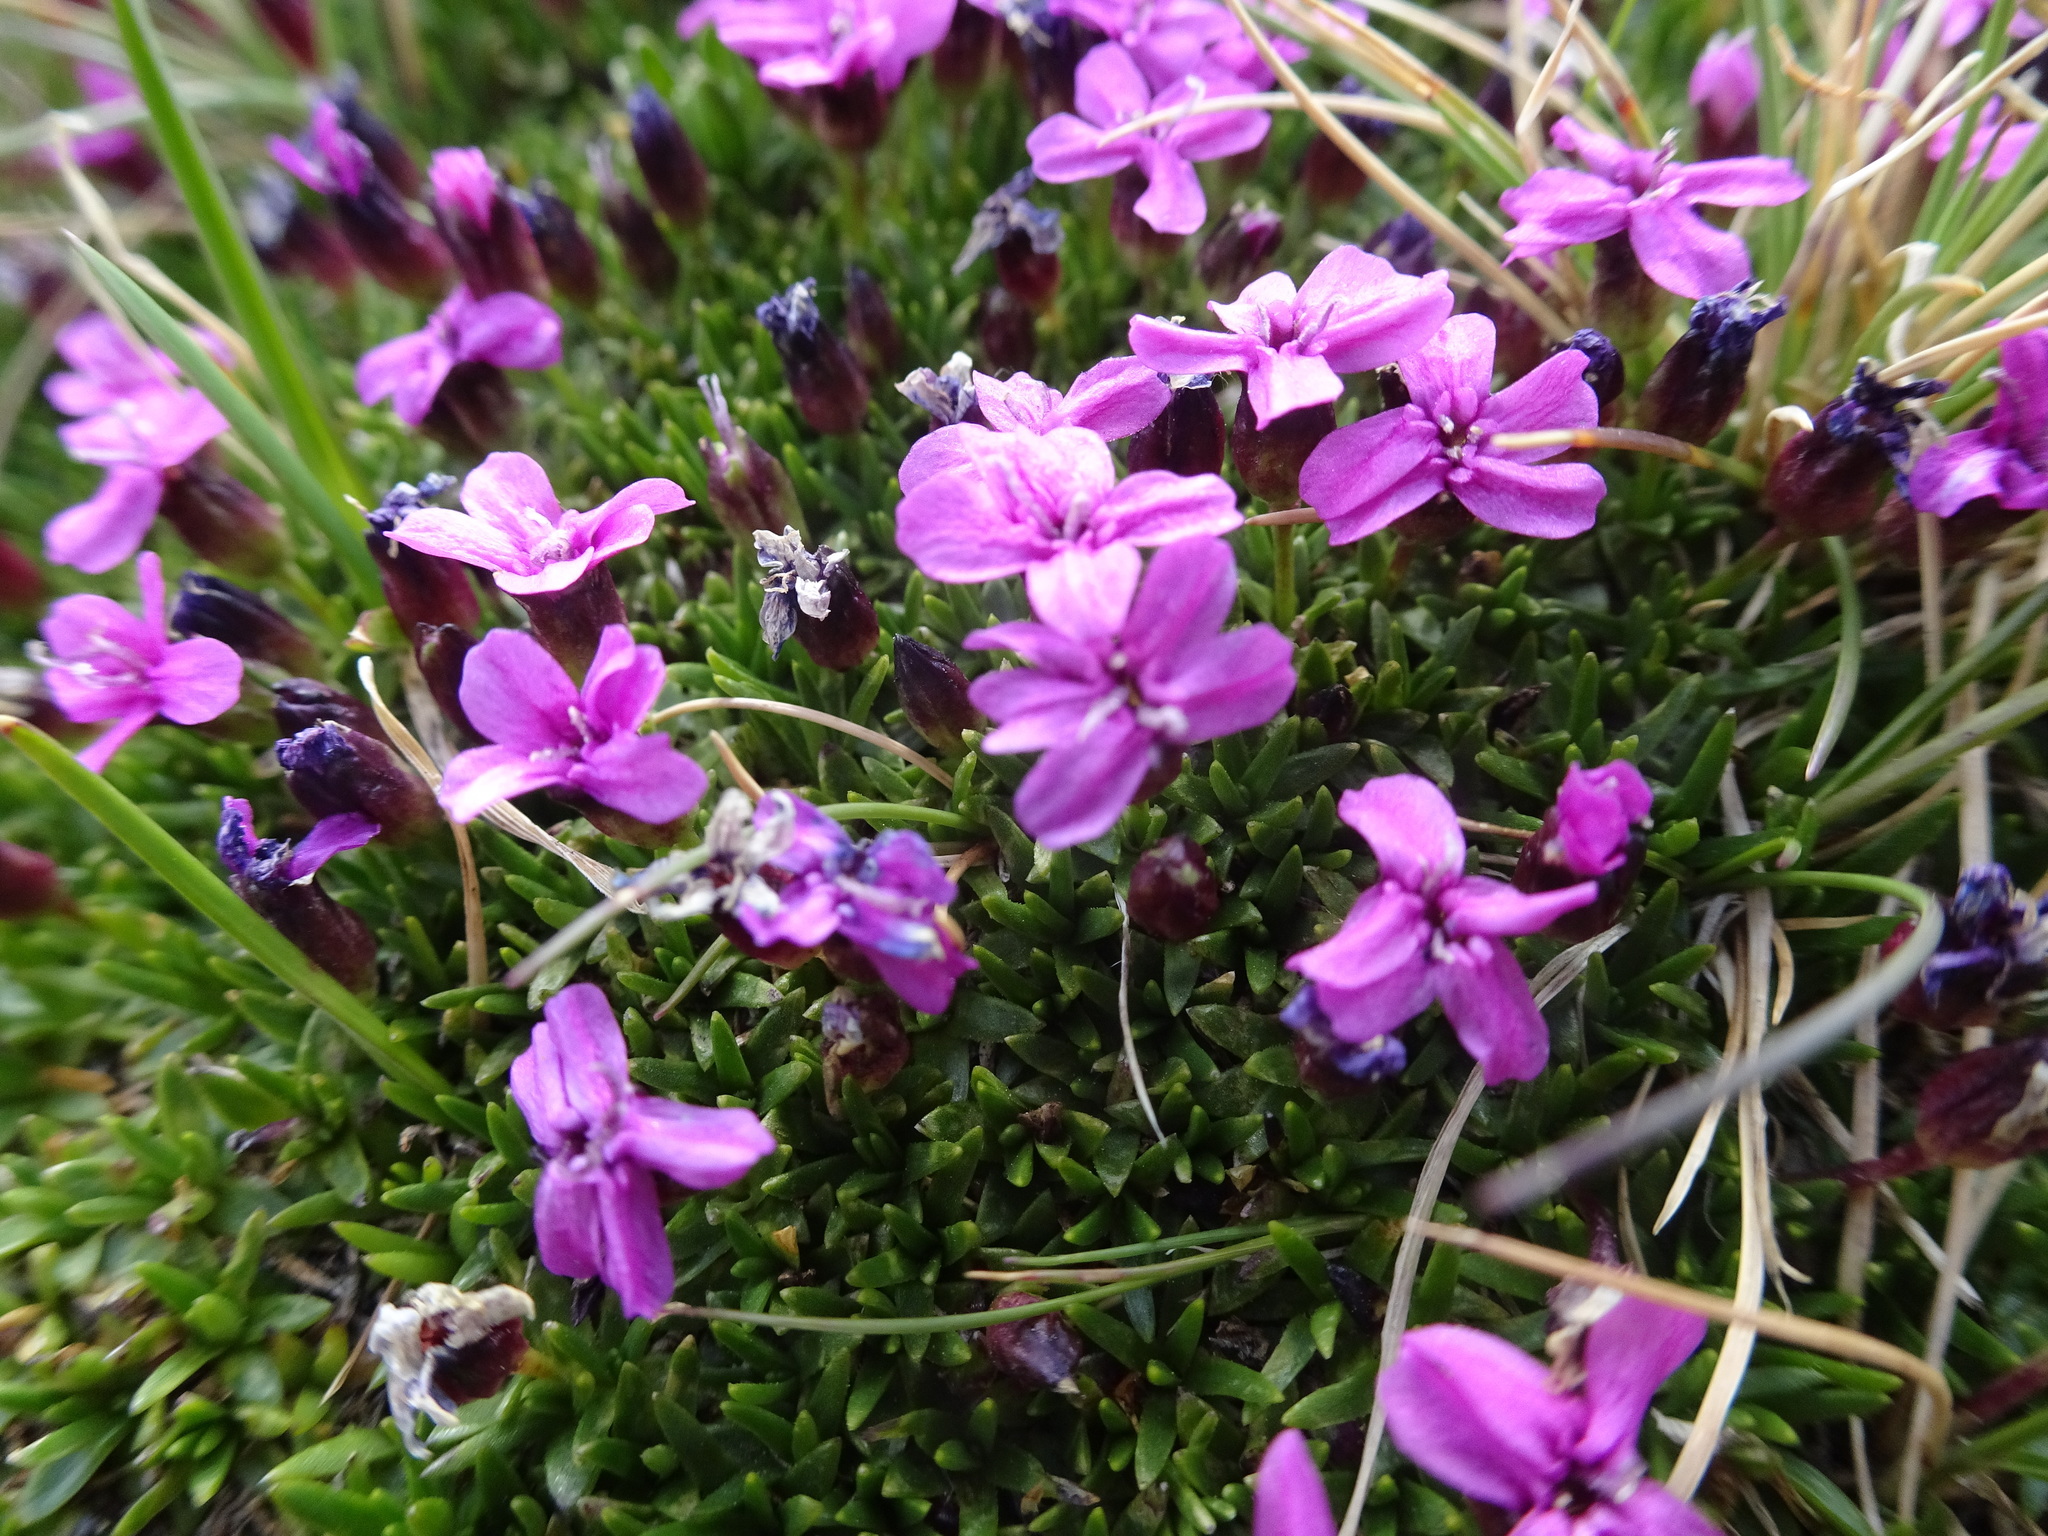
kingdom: Plantae
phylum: Tracheophyta
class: Magnoliopsida
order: Caryophyllales
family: Caryophyllaceae
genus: Silene
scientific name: Silene acaulis
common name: Moss campion
